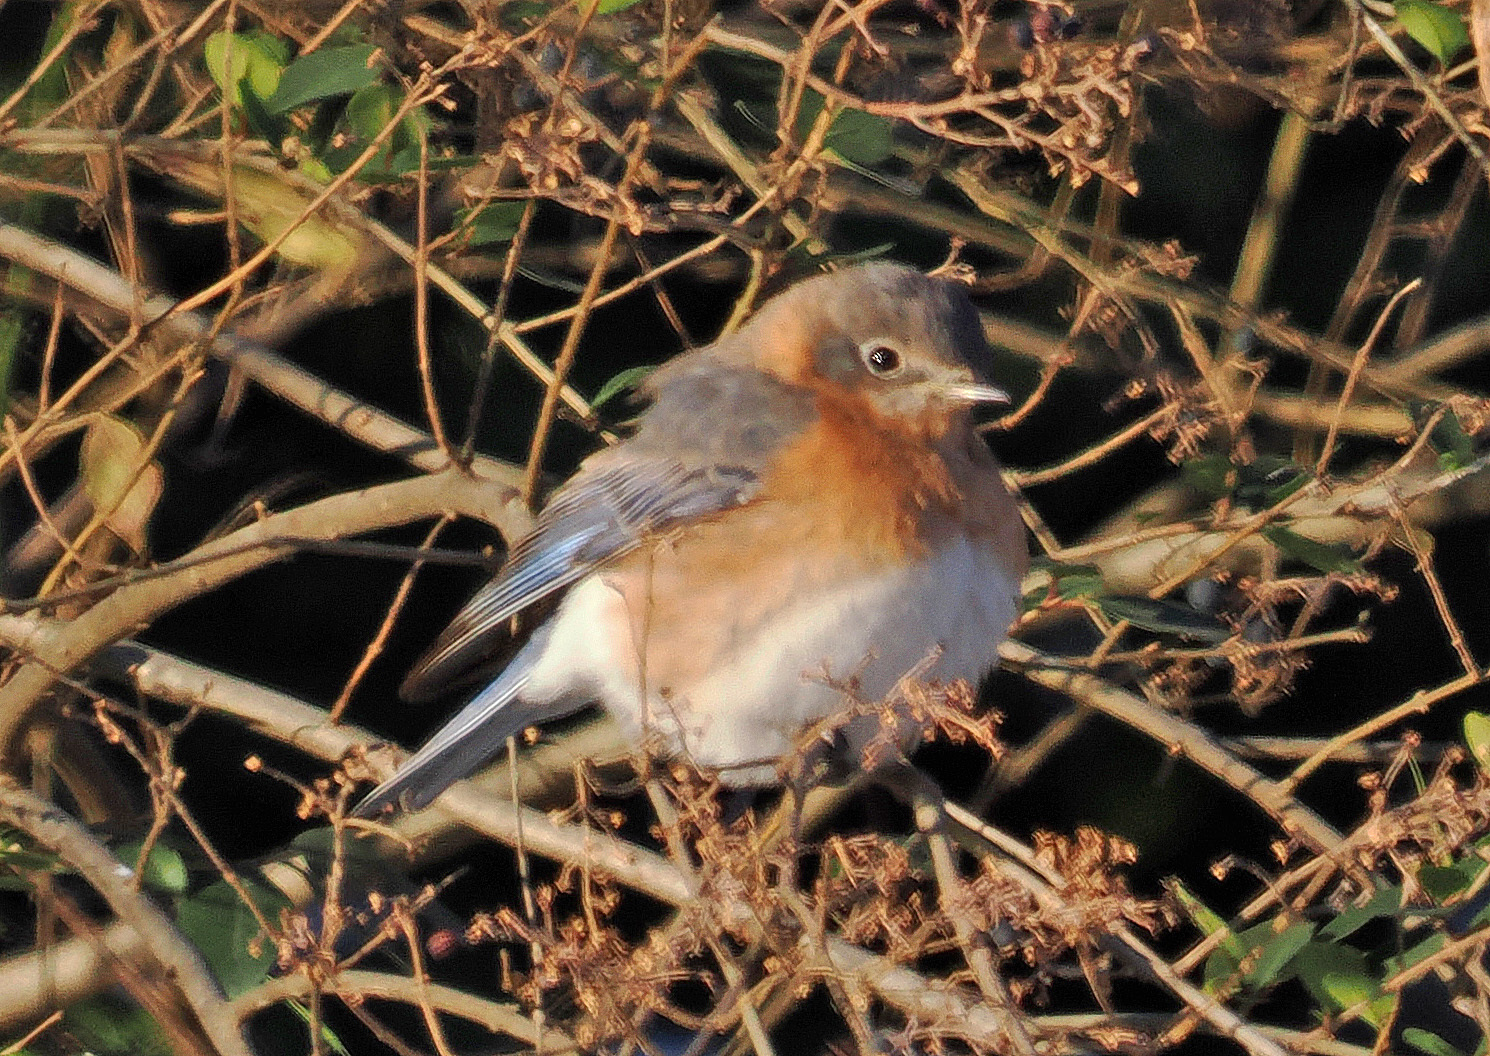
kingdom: Animalia
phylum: Chordata
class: Aves
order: Passeriformes
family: Turdidae
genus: Sialia
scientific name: Sialia sialis
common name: Eastern bluebird
